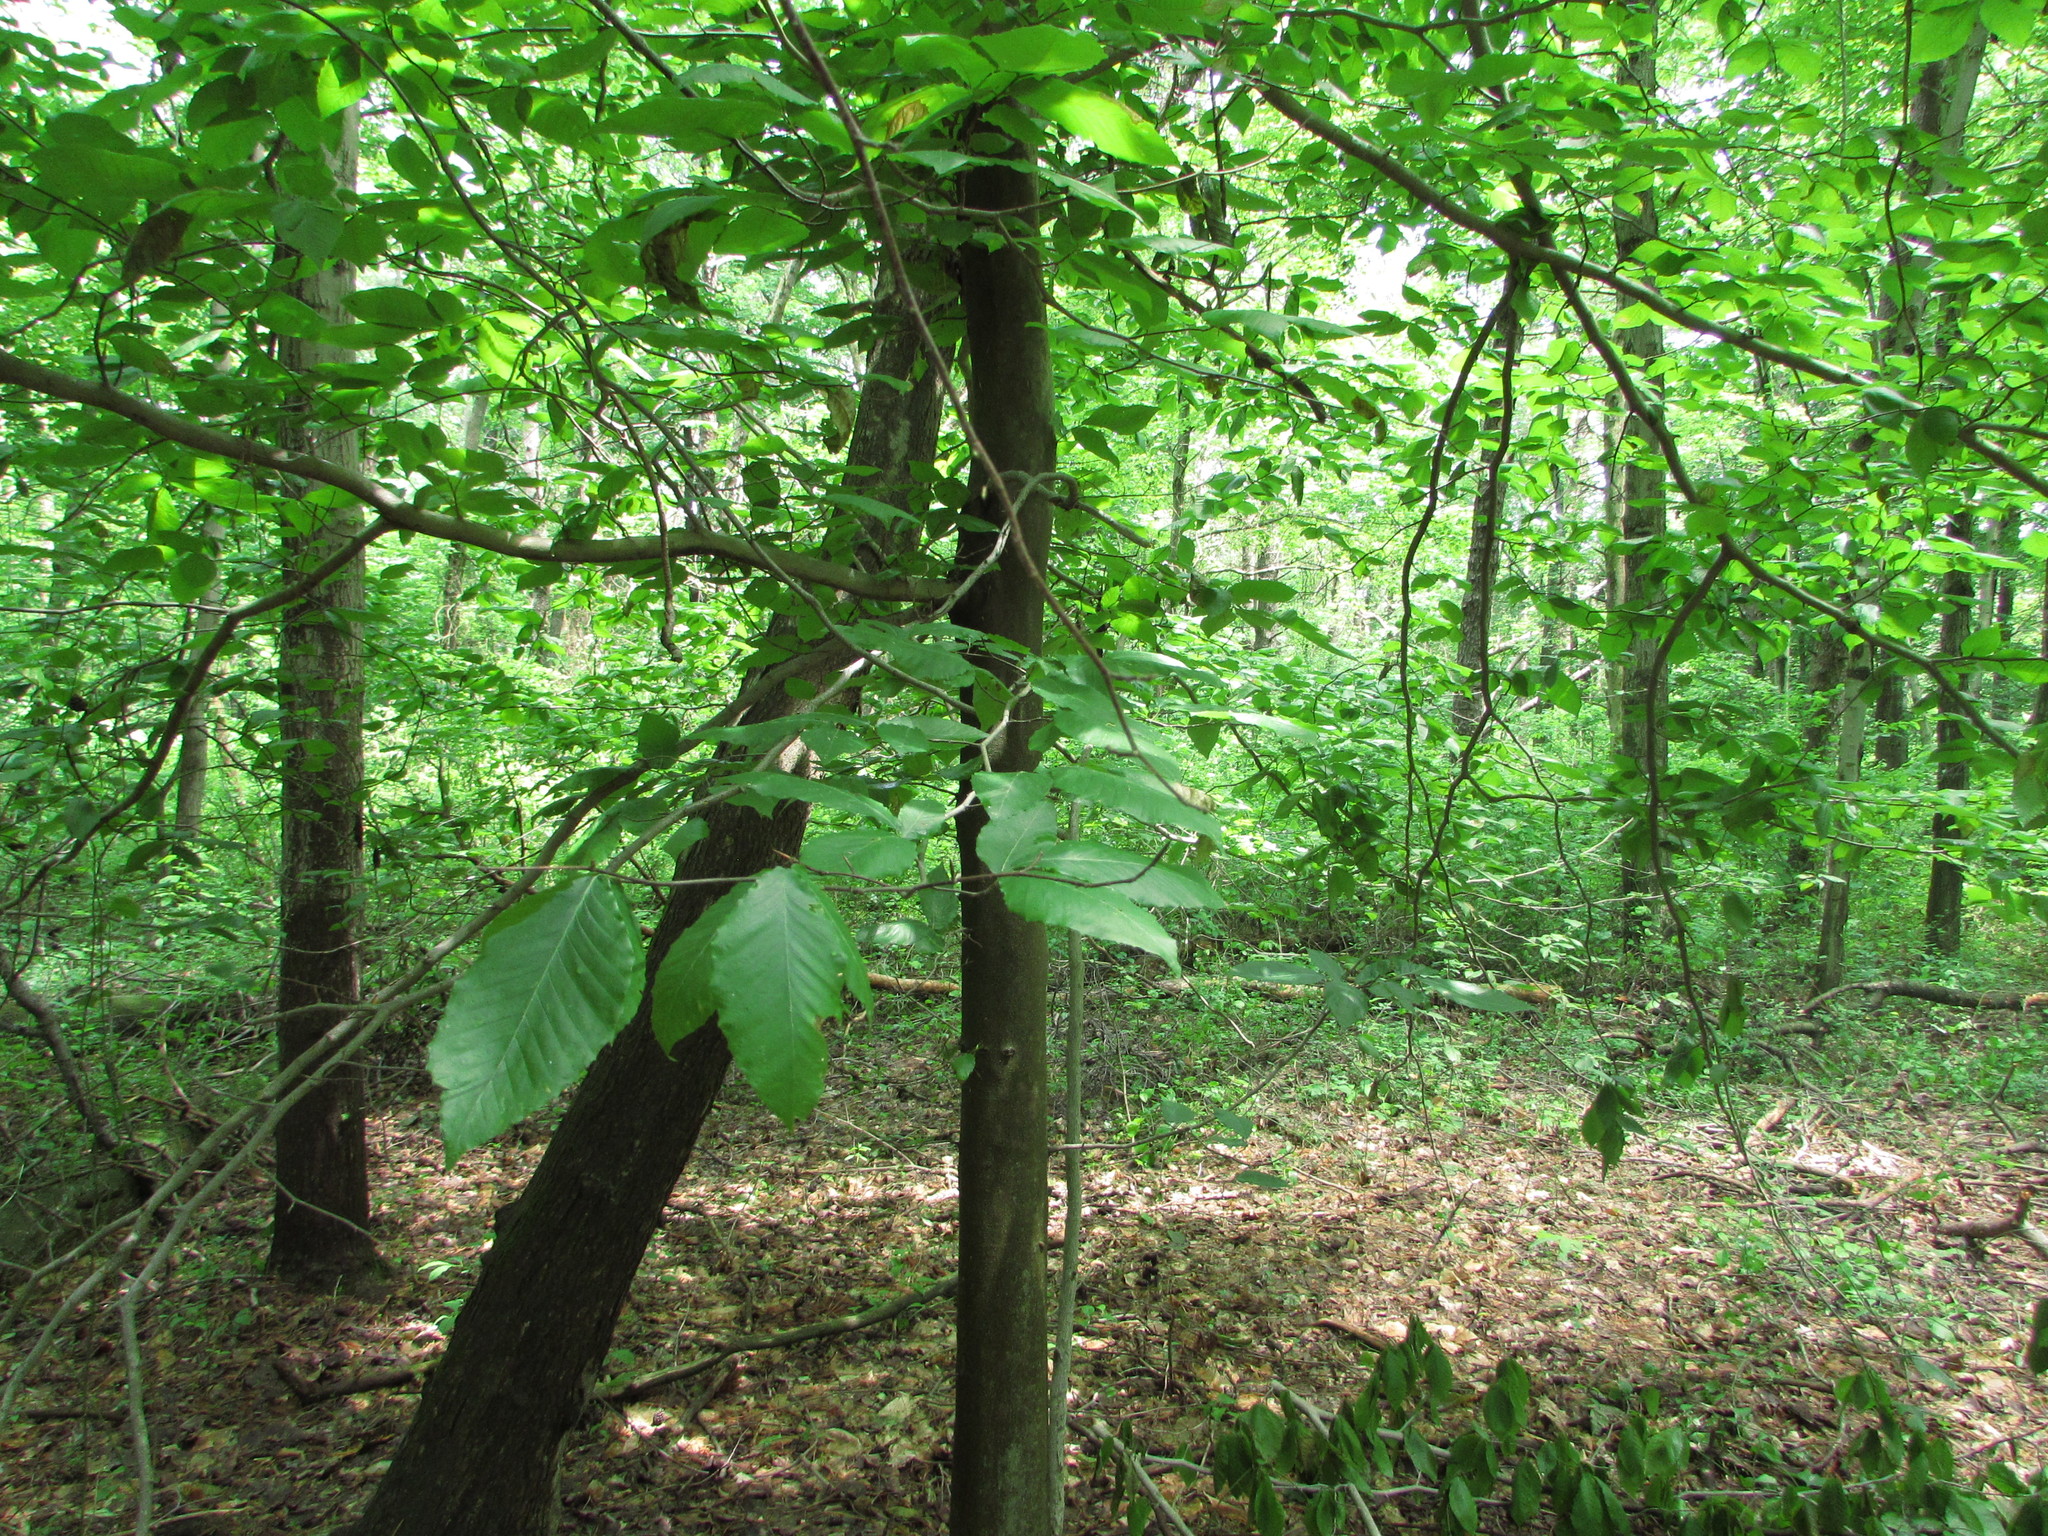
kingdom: Plantae
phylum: Tracheophyta
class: Magnoliopsida
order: Fagales
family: Fagaceae
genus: Fagus
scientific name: Fagus grandifolia
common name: American beech
